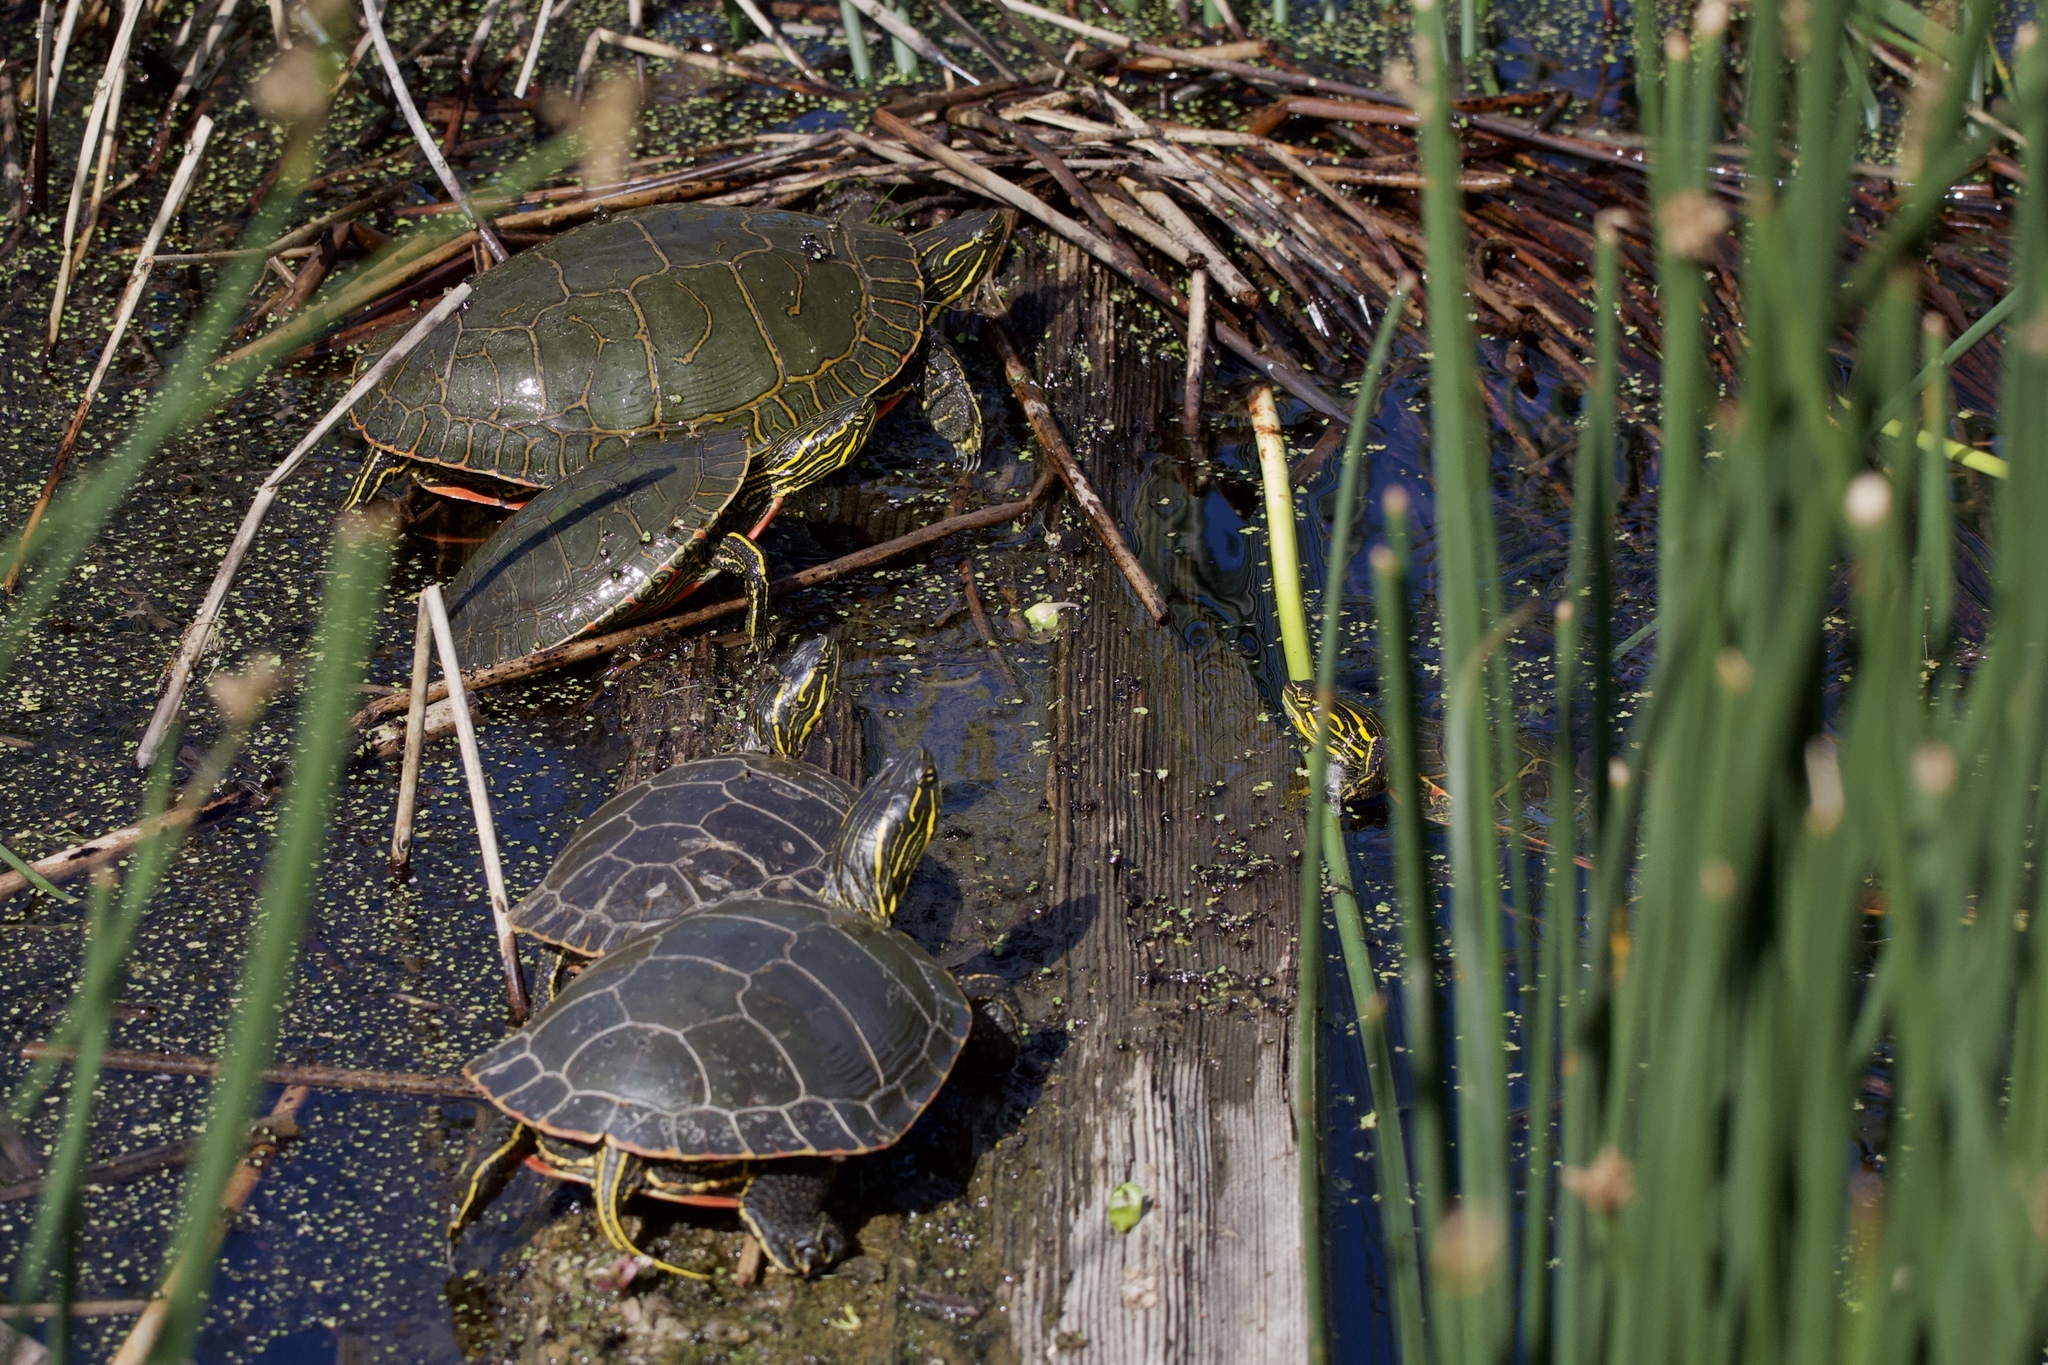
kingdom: Animalia
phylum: Chordata
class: Testudines
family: Emydidae
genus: Chrysemys
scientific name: Chrysemys picta
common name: Painted turtle
